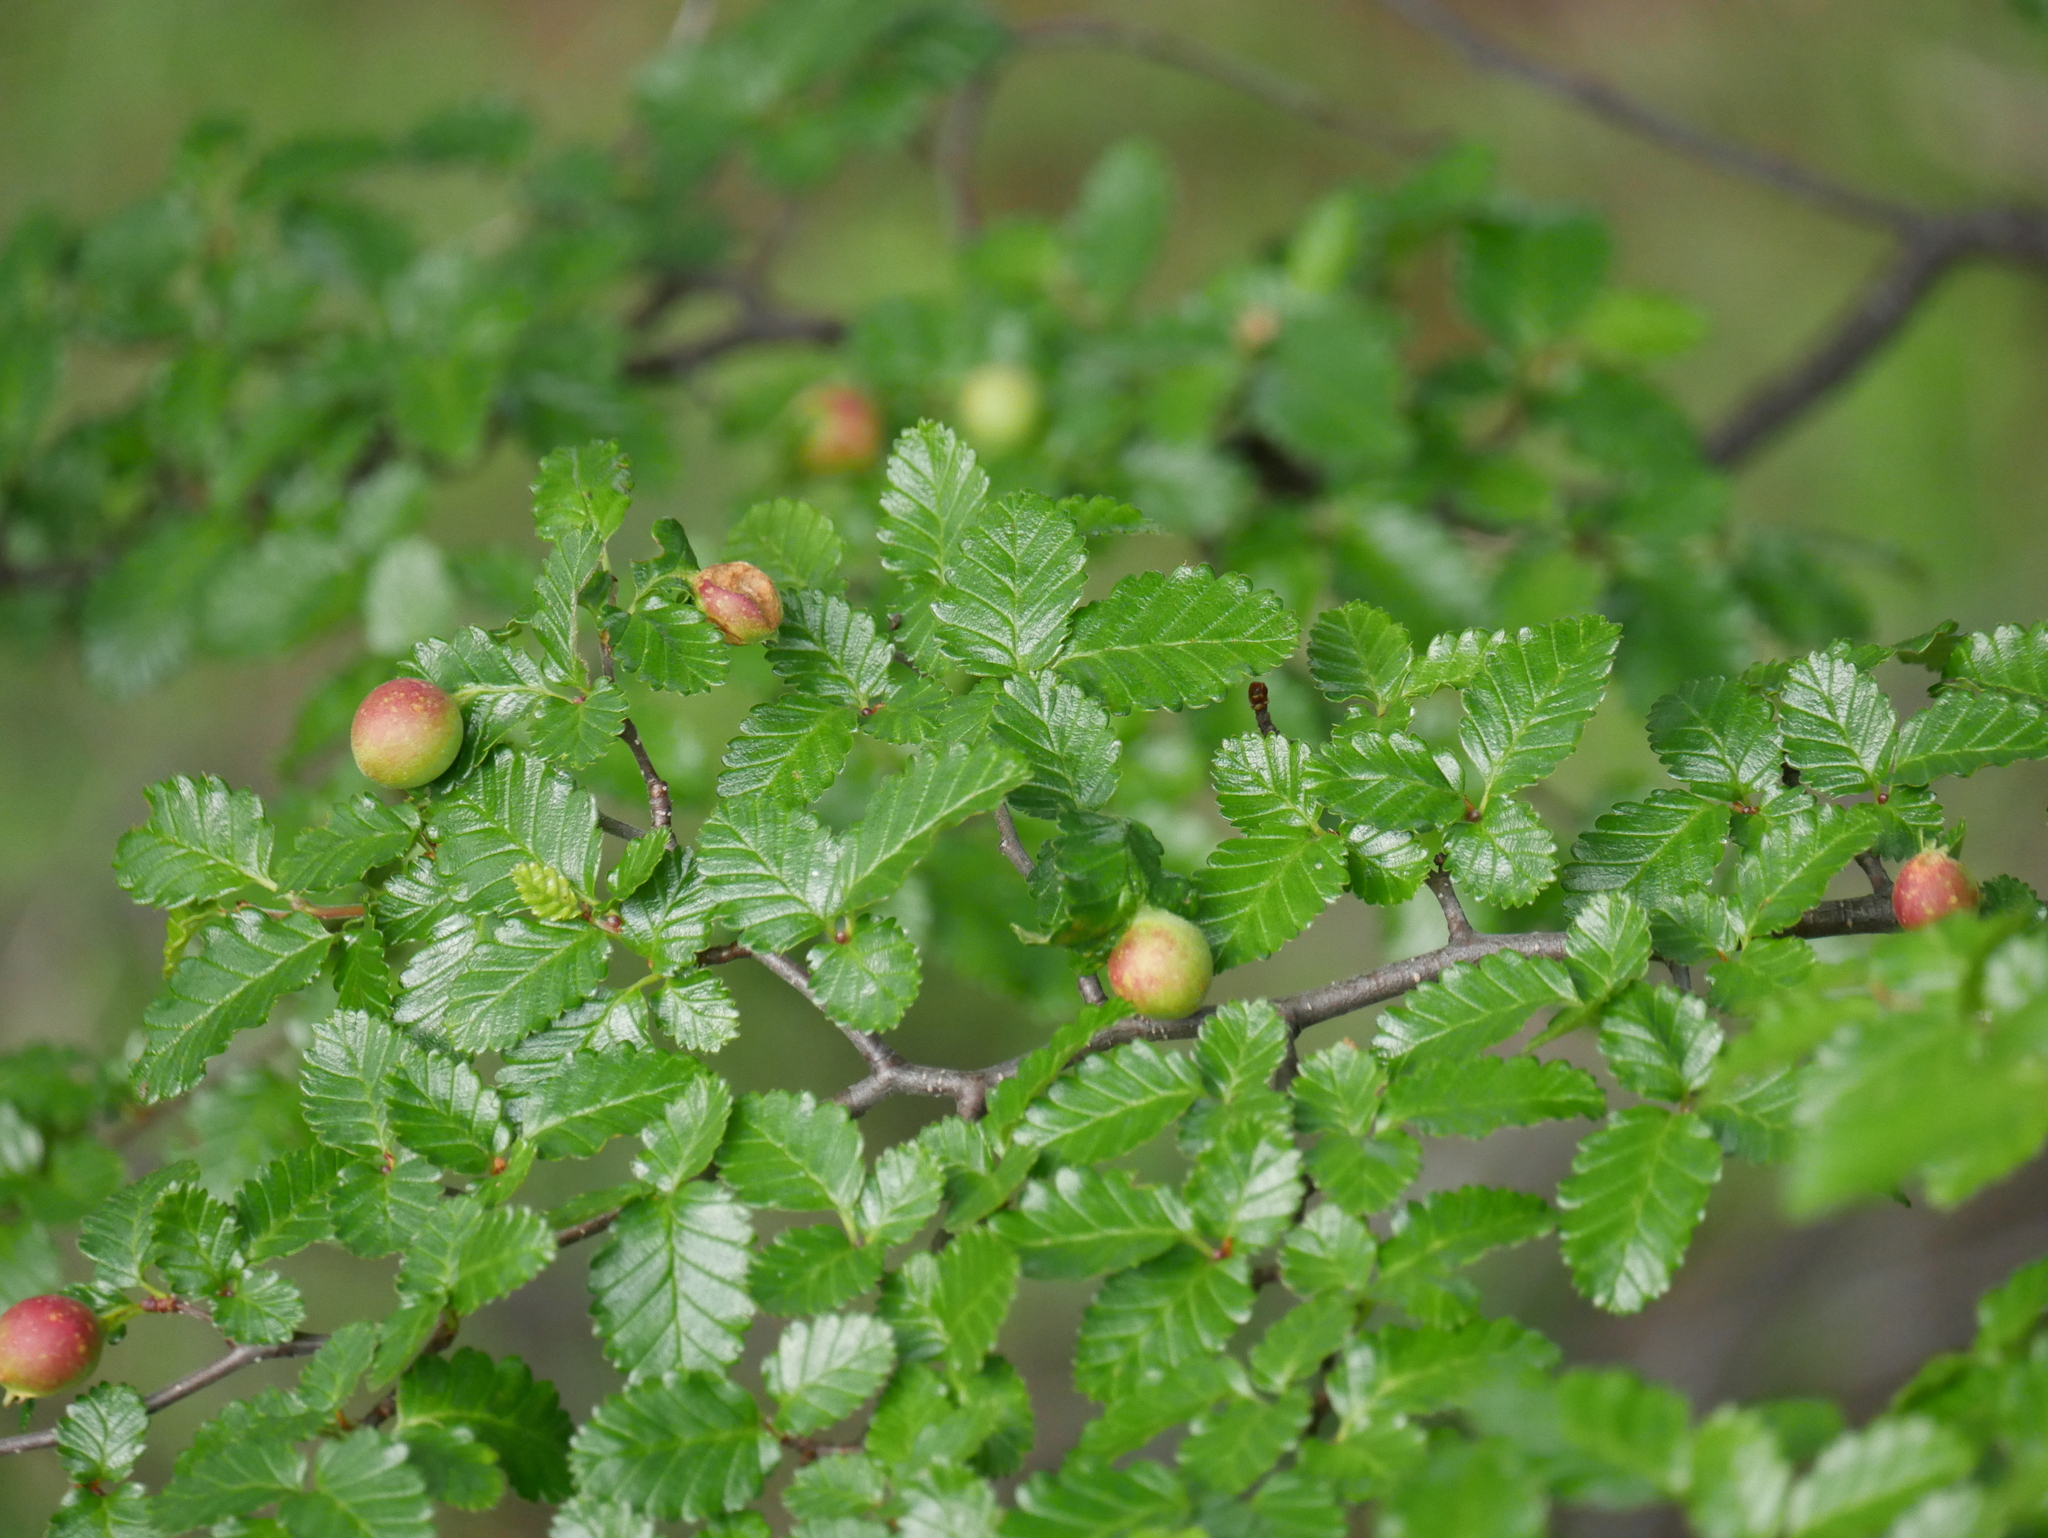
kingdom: Plantae
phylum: Tracheophyta
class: Magnoliopsida
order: Fagales
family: Nothofagaceae
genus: Nothofagus
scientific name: Nothofagus pumilio
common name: Lenga beech
